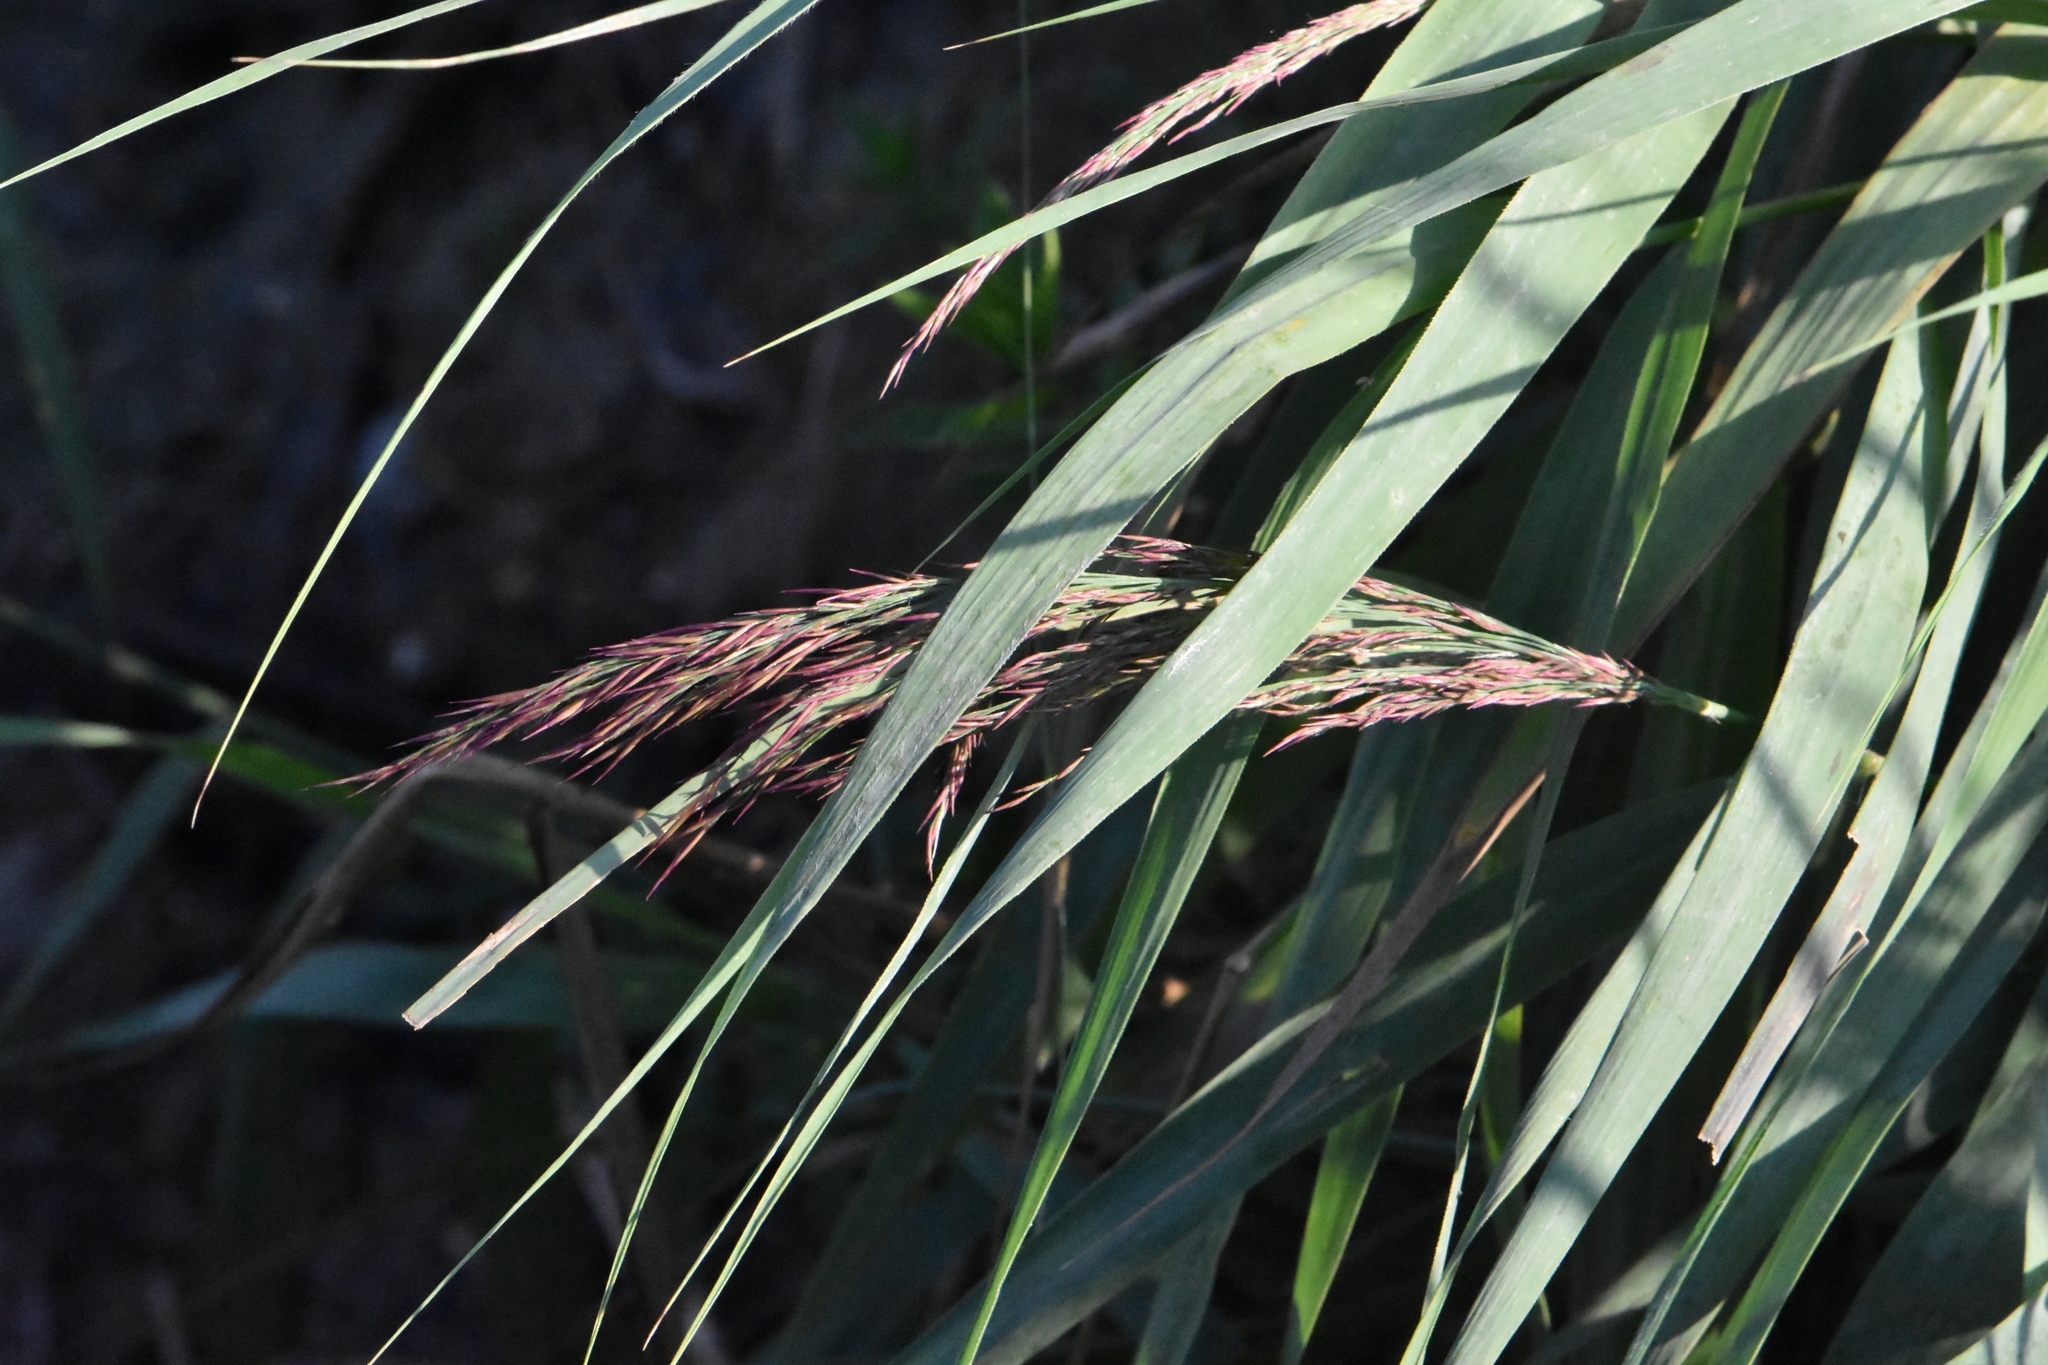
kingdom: Plantae
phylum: Tracheophyta
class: Liliopsida
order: Poales
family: Poaceae
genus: Phragmites
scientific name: Phragmites australis
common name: Common reed
